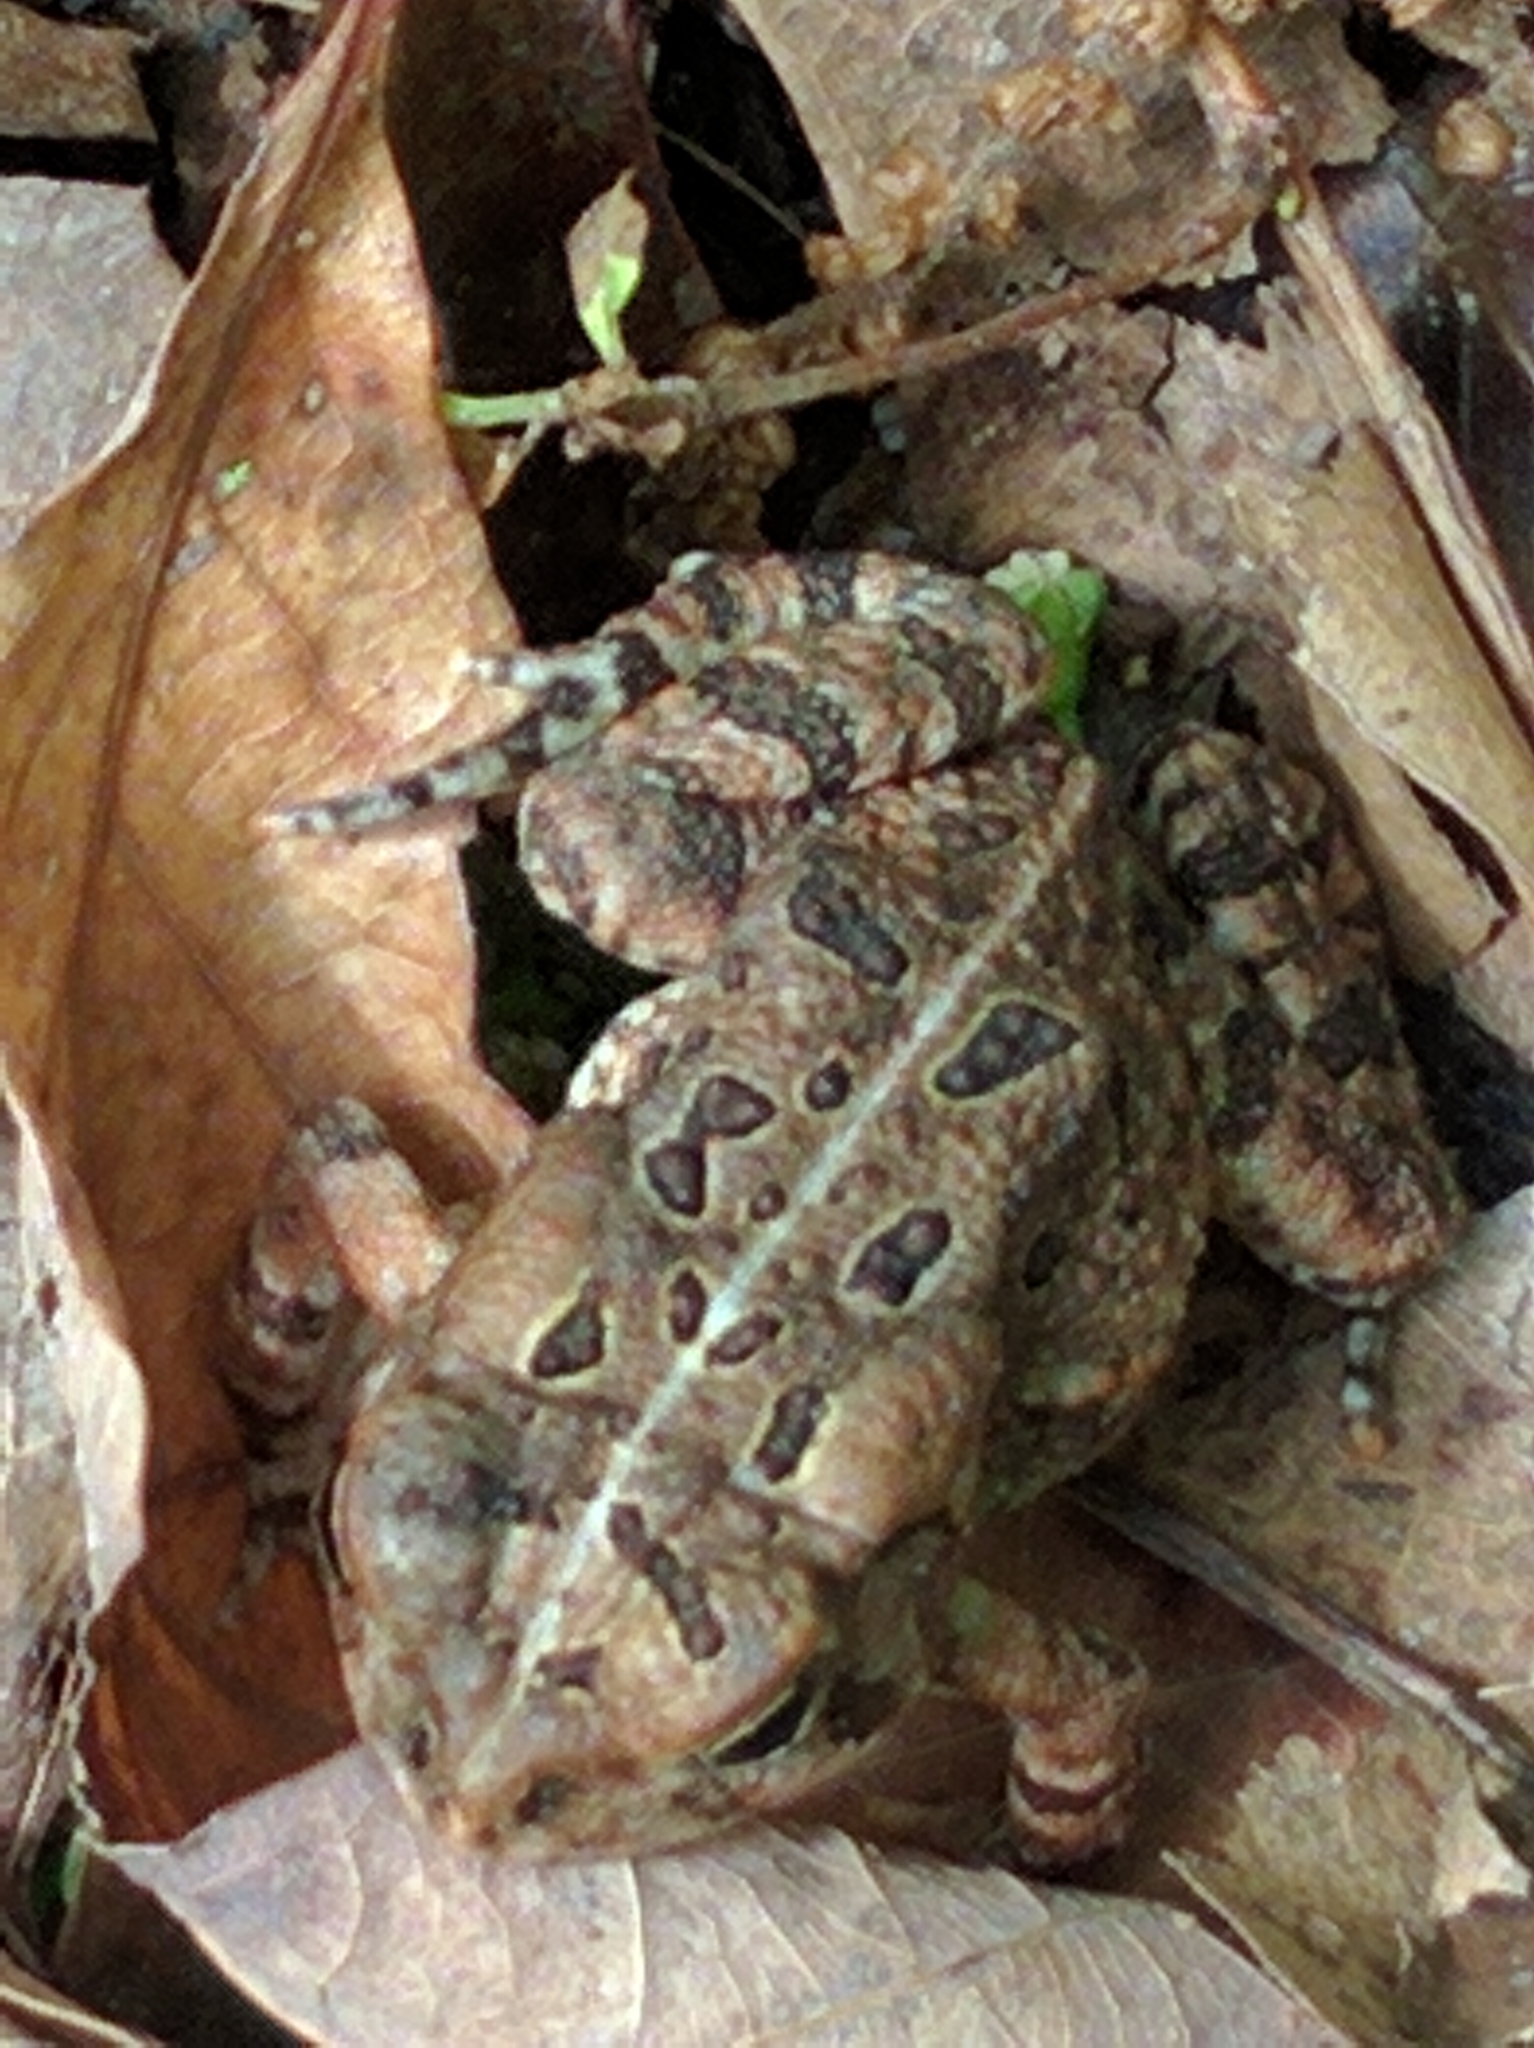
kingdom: Animalia
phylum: Chordata
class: Amphibia
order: Anura
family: Bufonidae
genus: Anaxyrus
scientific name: Anaxyrus fowleri
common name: Fowler's toad
